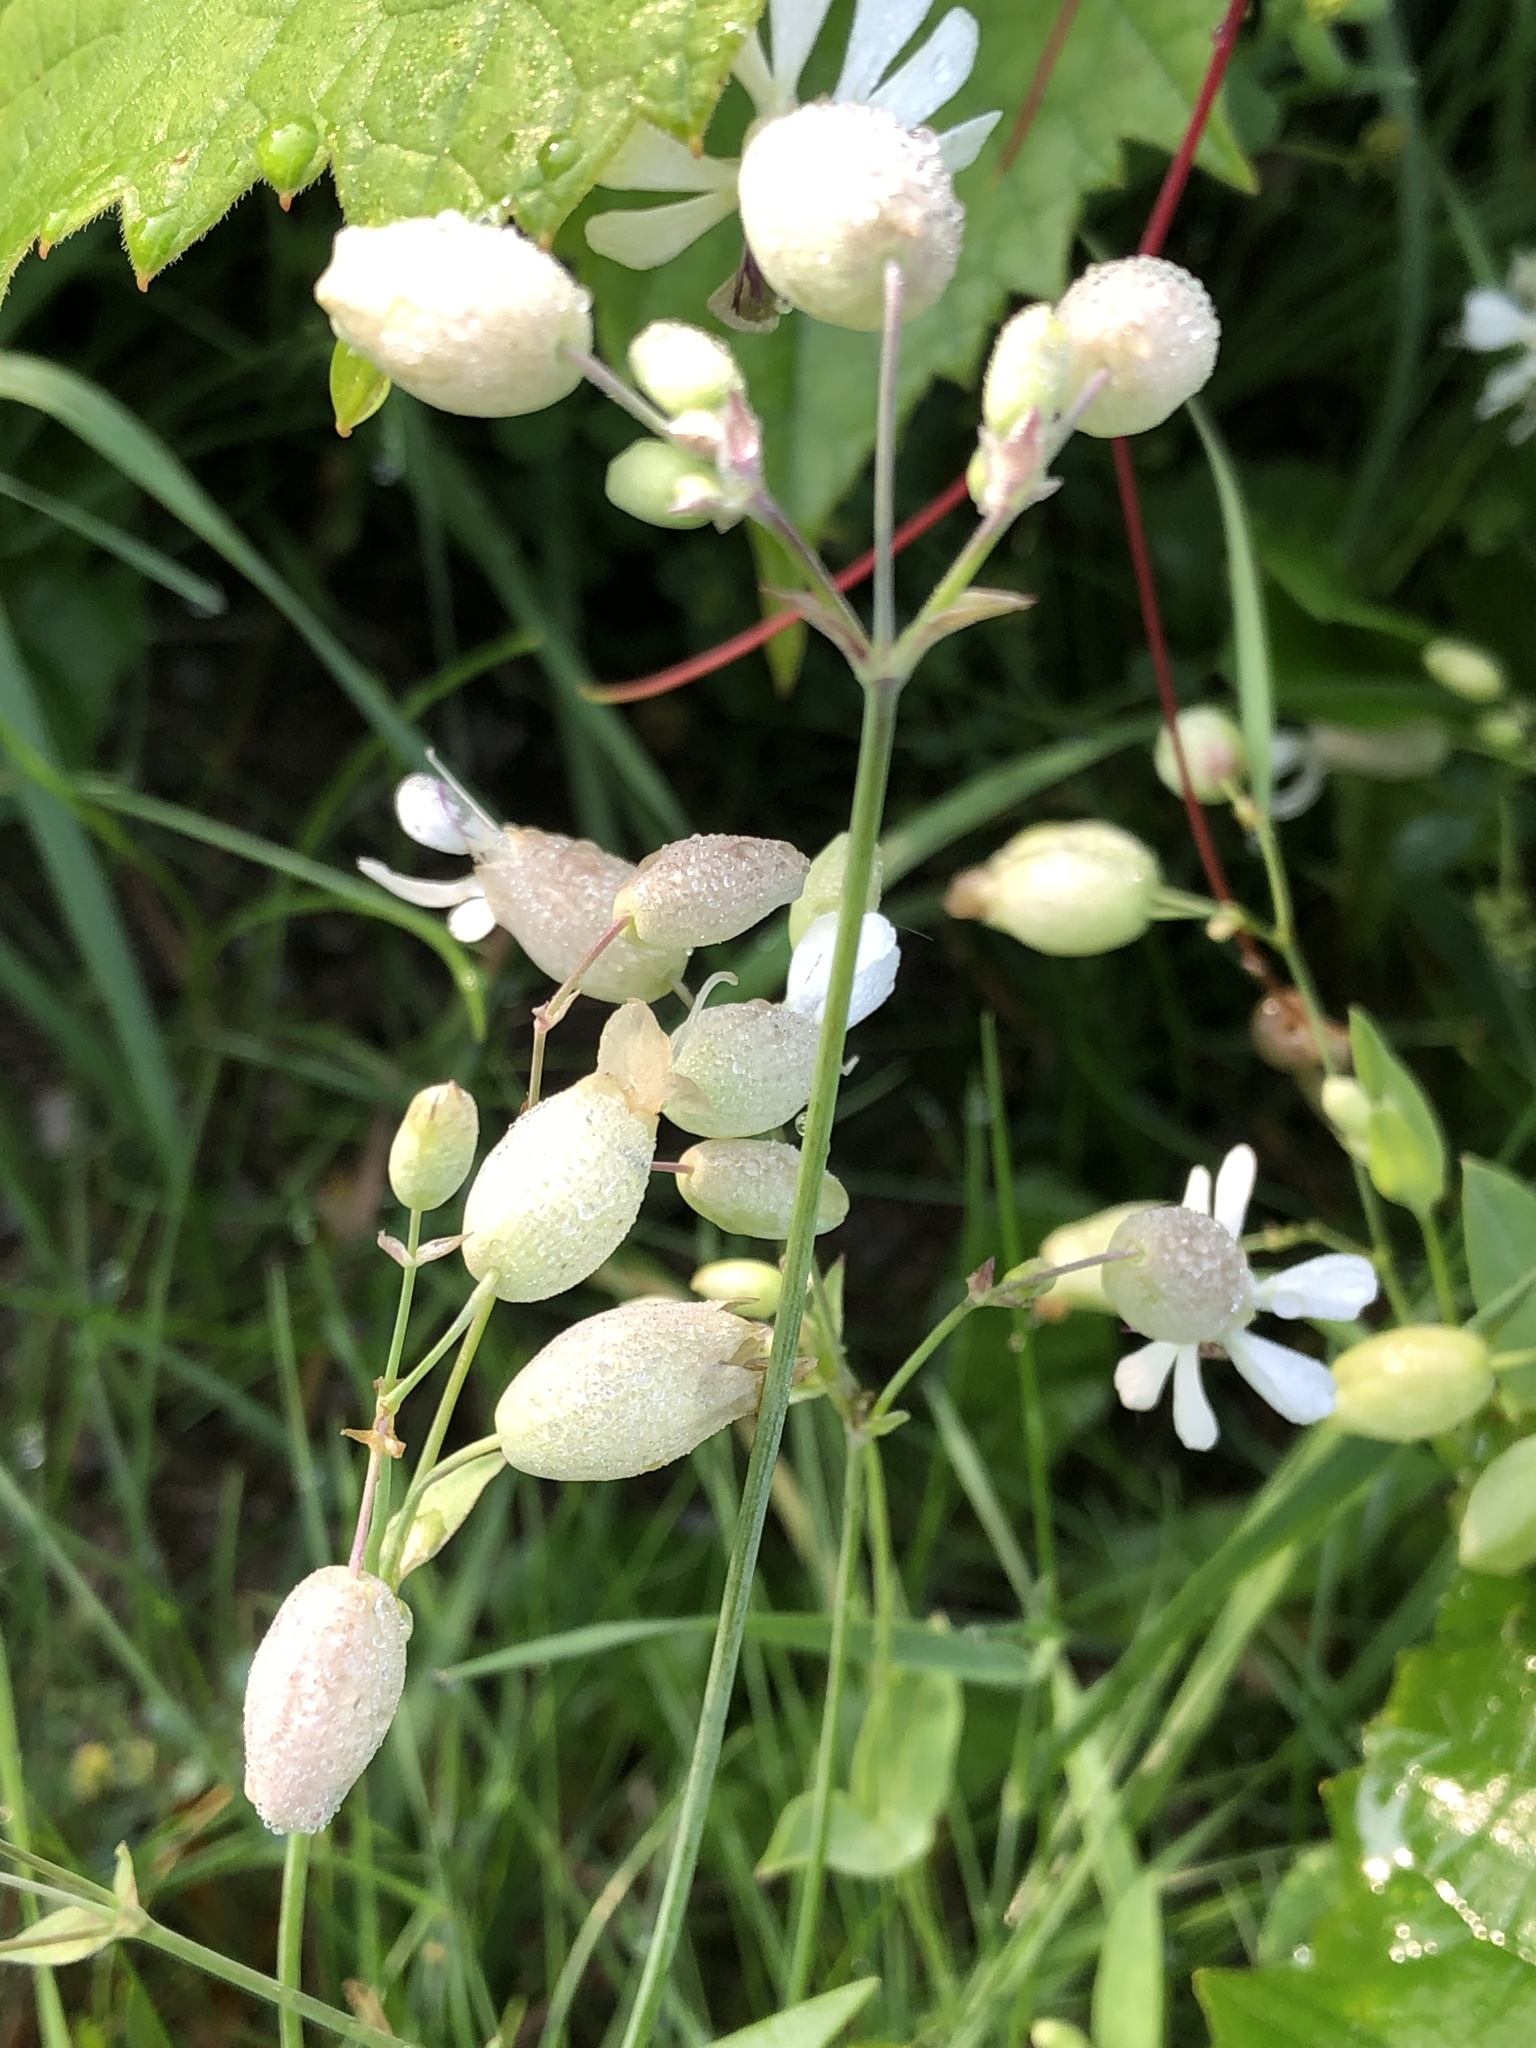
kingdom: Plantae
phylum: Tracheophyta
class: Magnoliopsida
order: Caryophyllales
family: Caryophyllaceae
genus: Silene
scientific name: Silene vulgaris
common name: Bladder campion
